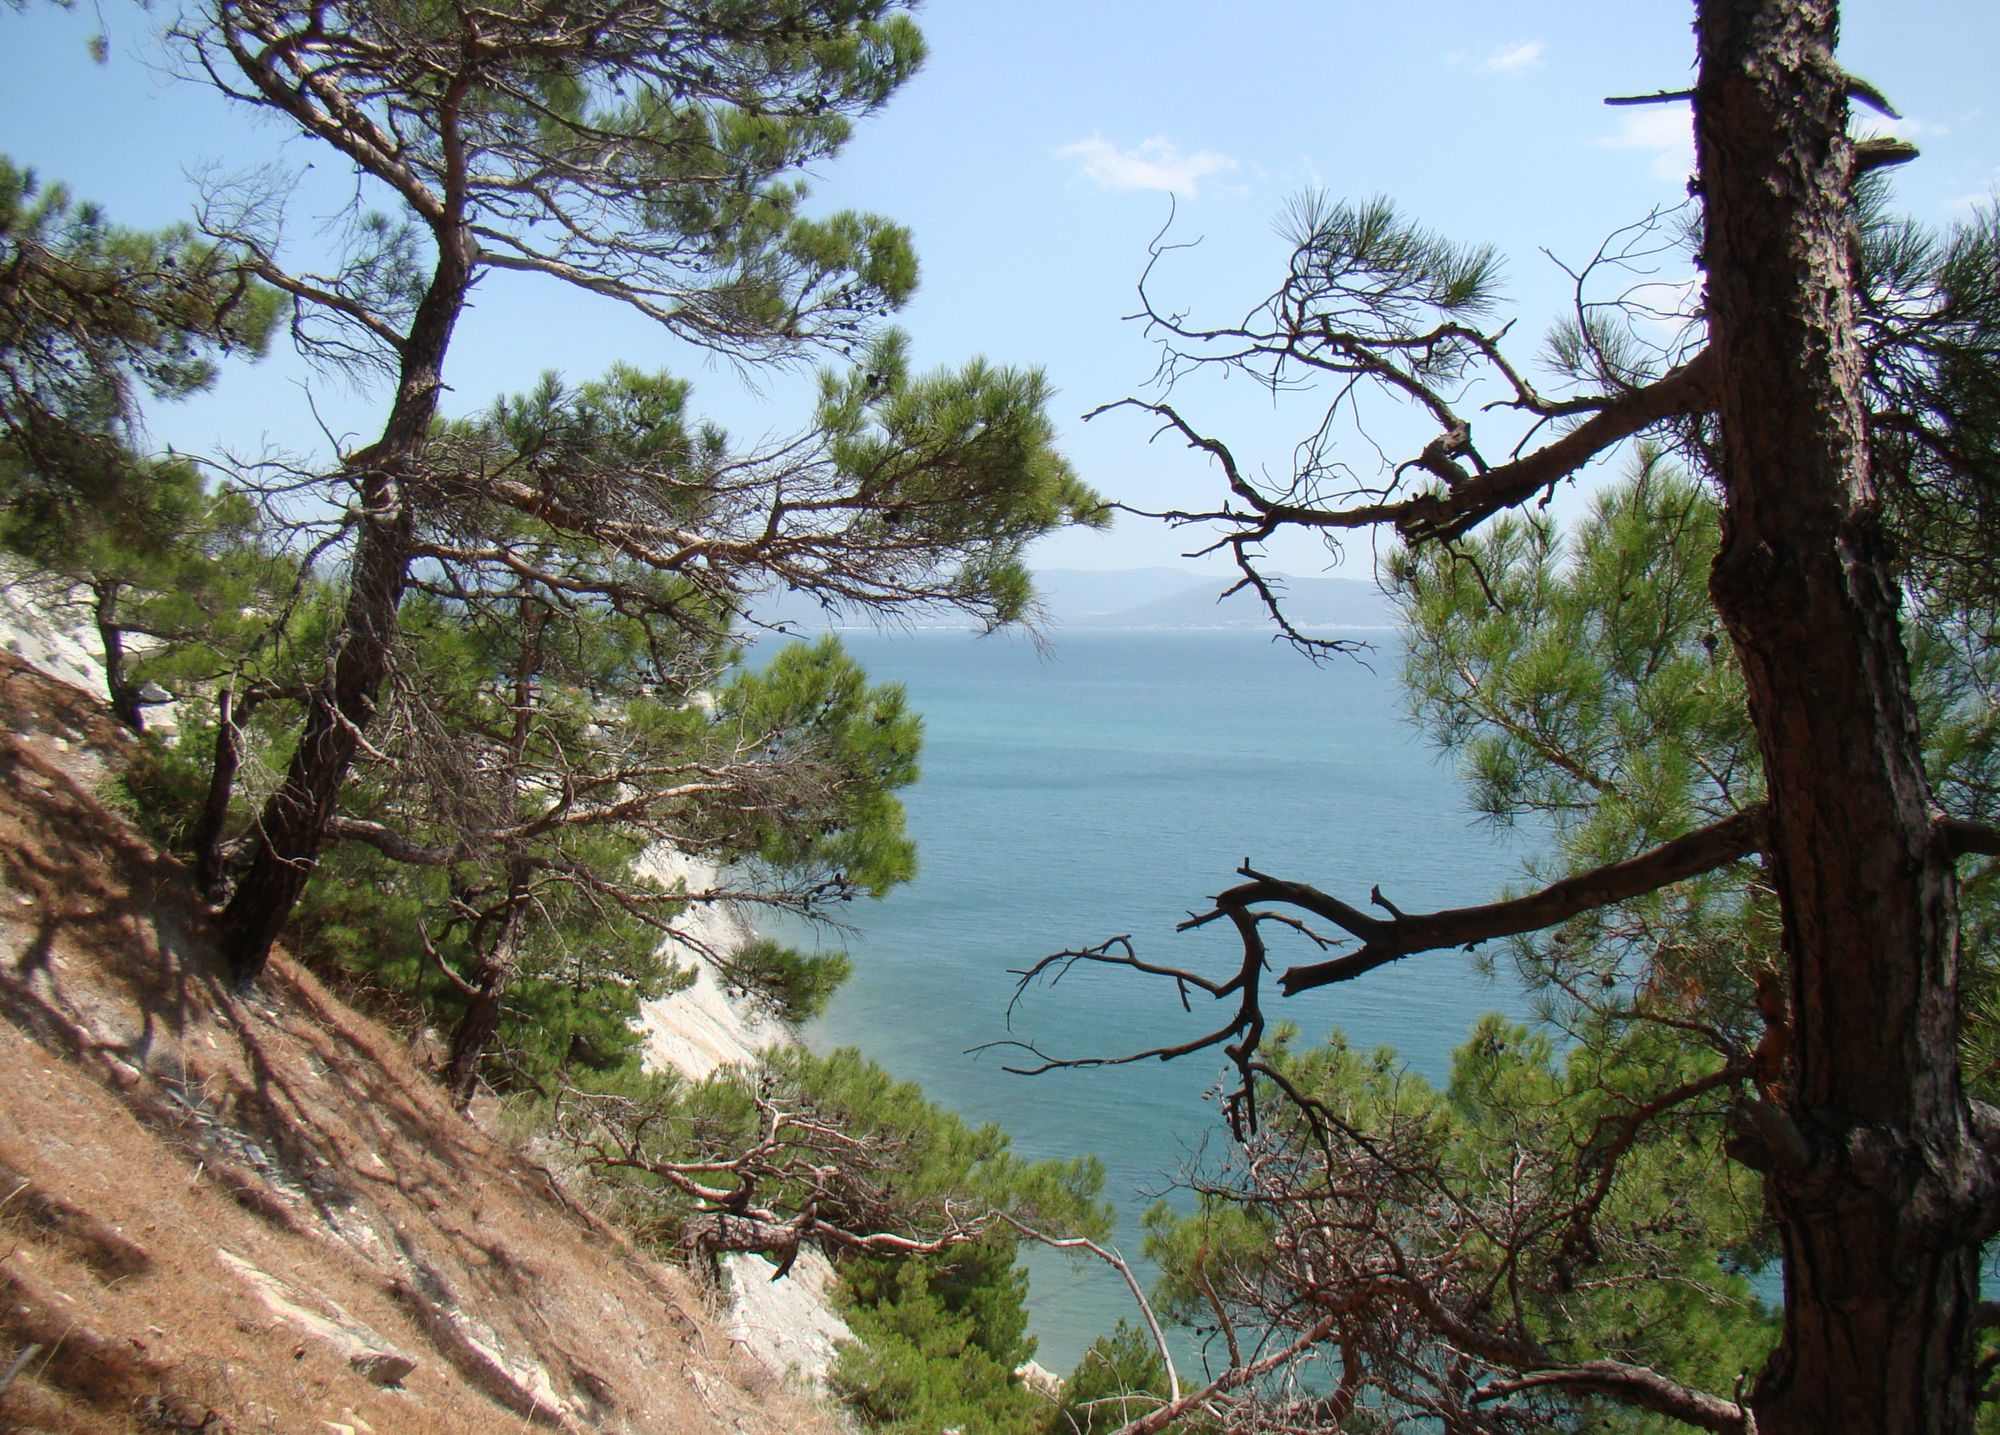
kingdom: Plantae
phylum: Tracheophyta
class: Pinopsida
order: Pinales
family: Pinaceae
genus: Pinus
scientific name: Pinus brutia
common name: Turkish pine
